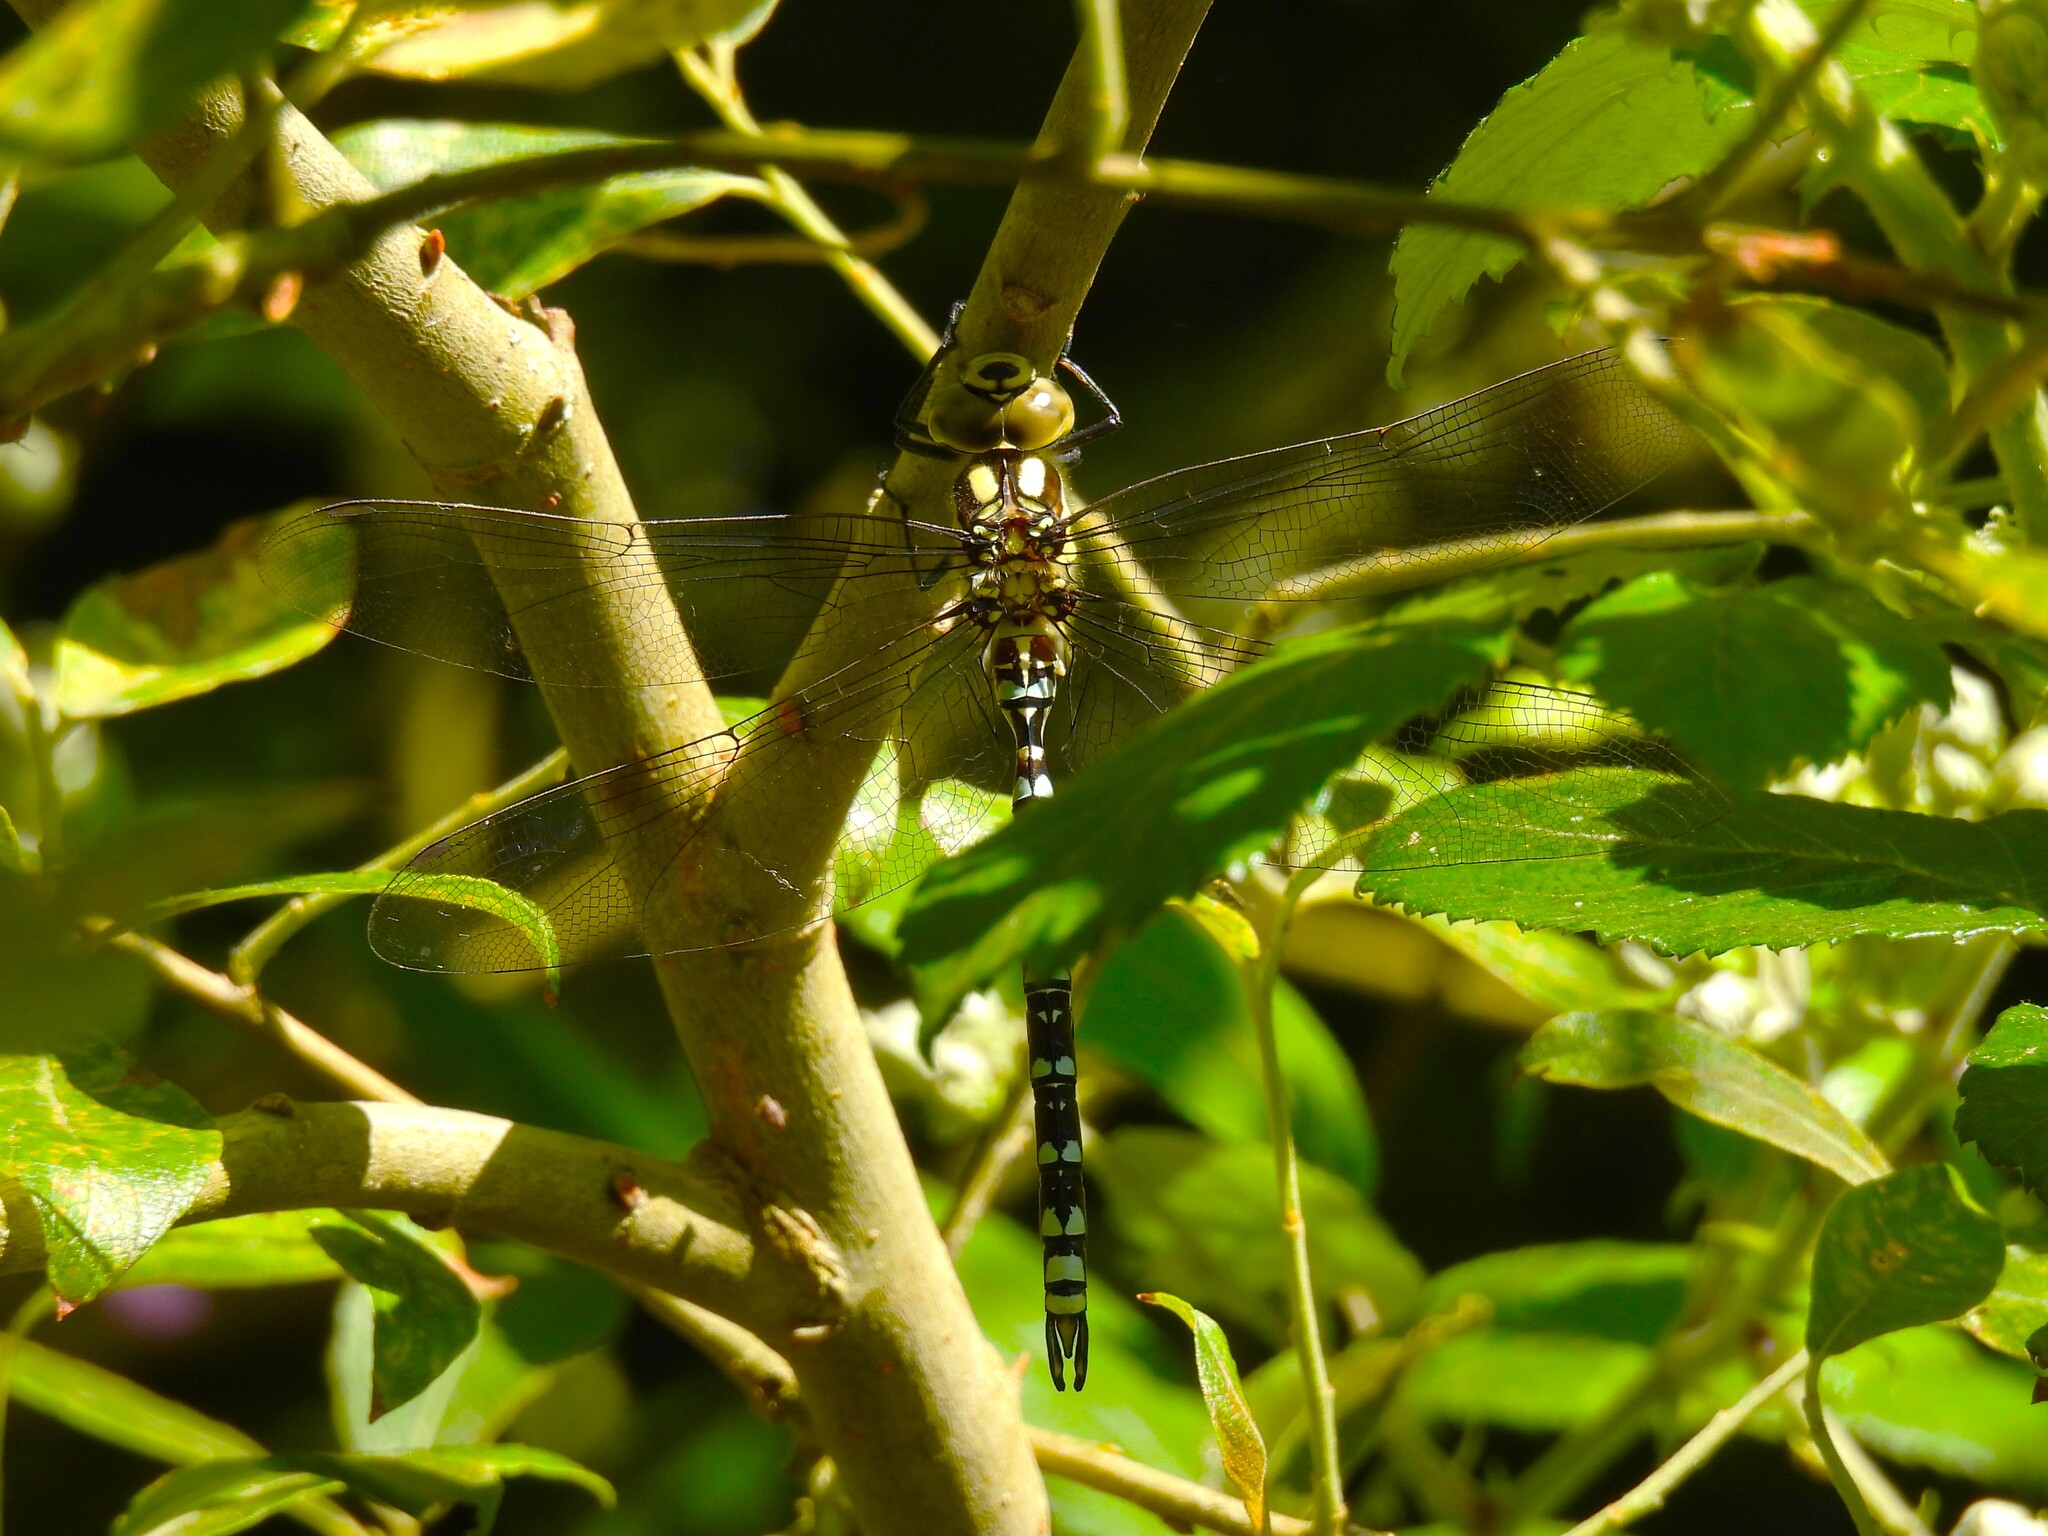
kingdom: Animalia
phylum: Arthropoda
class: Insecta
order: Odonata
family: Aeshnidae
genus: Aeshna
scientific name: Aeshna cyanea
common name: Southern hawker
